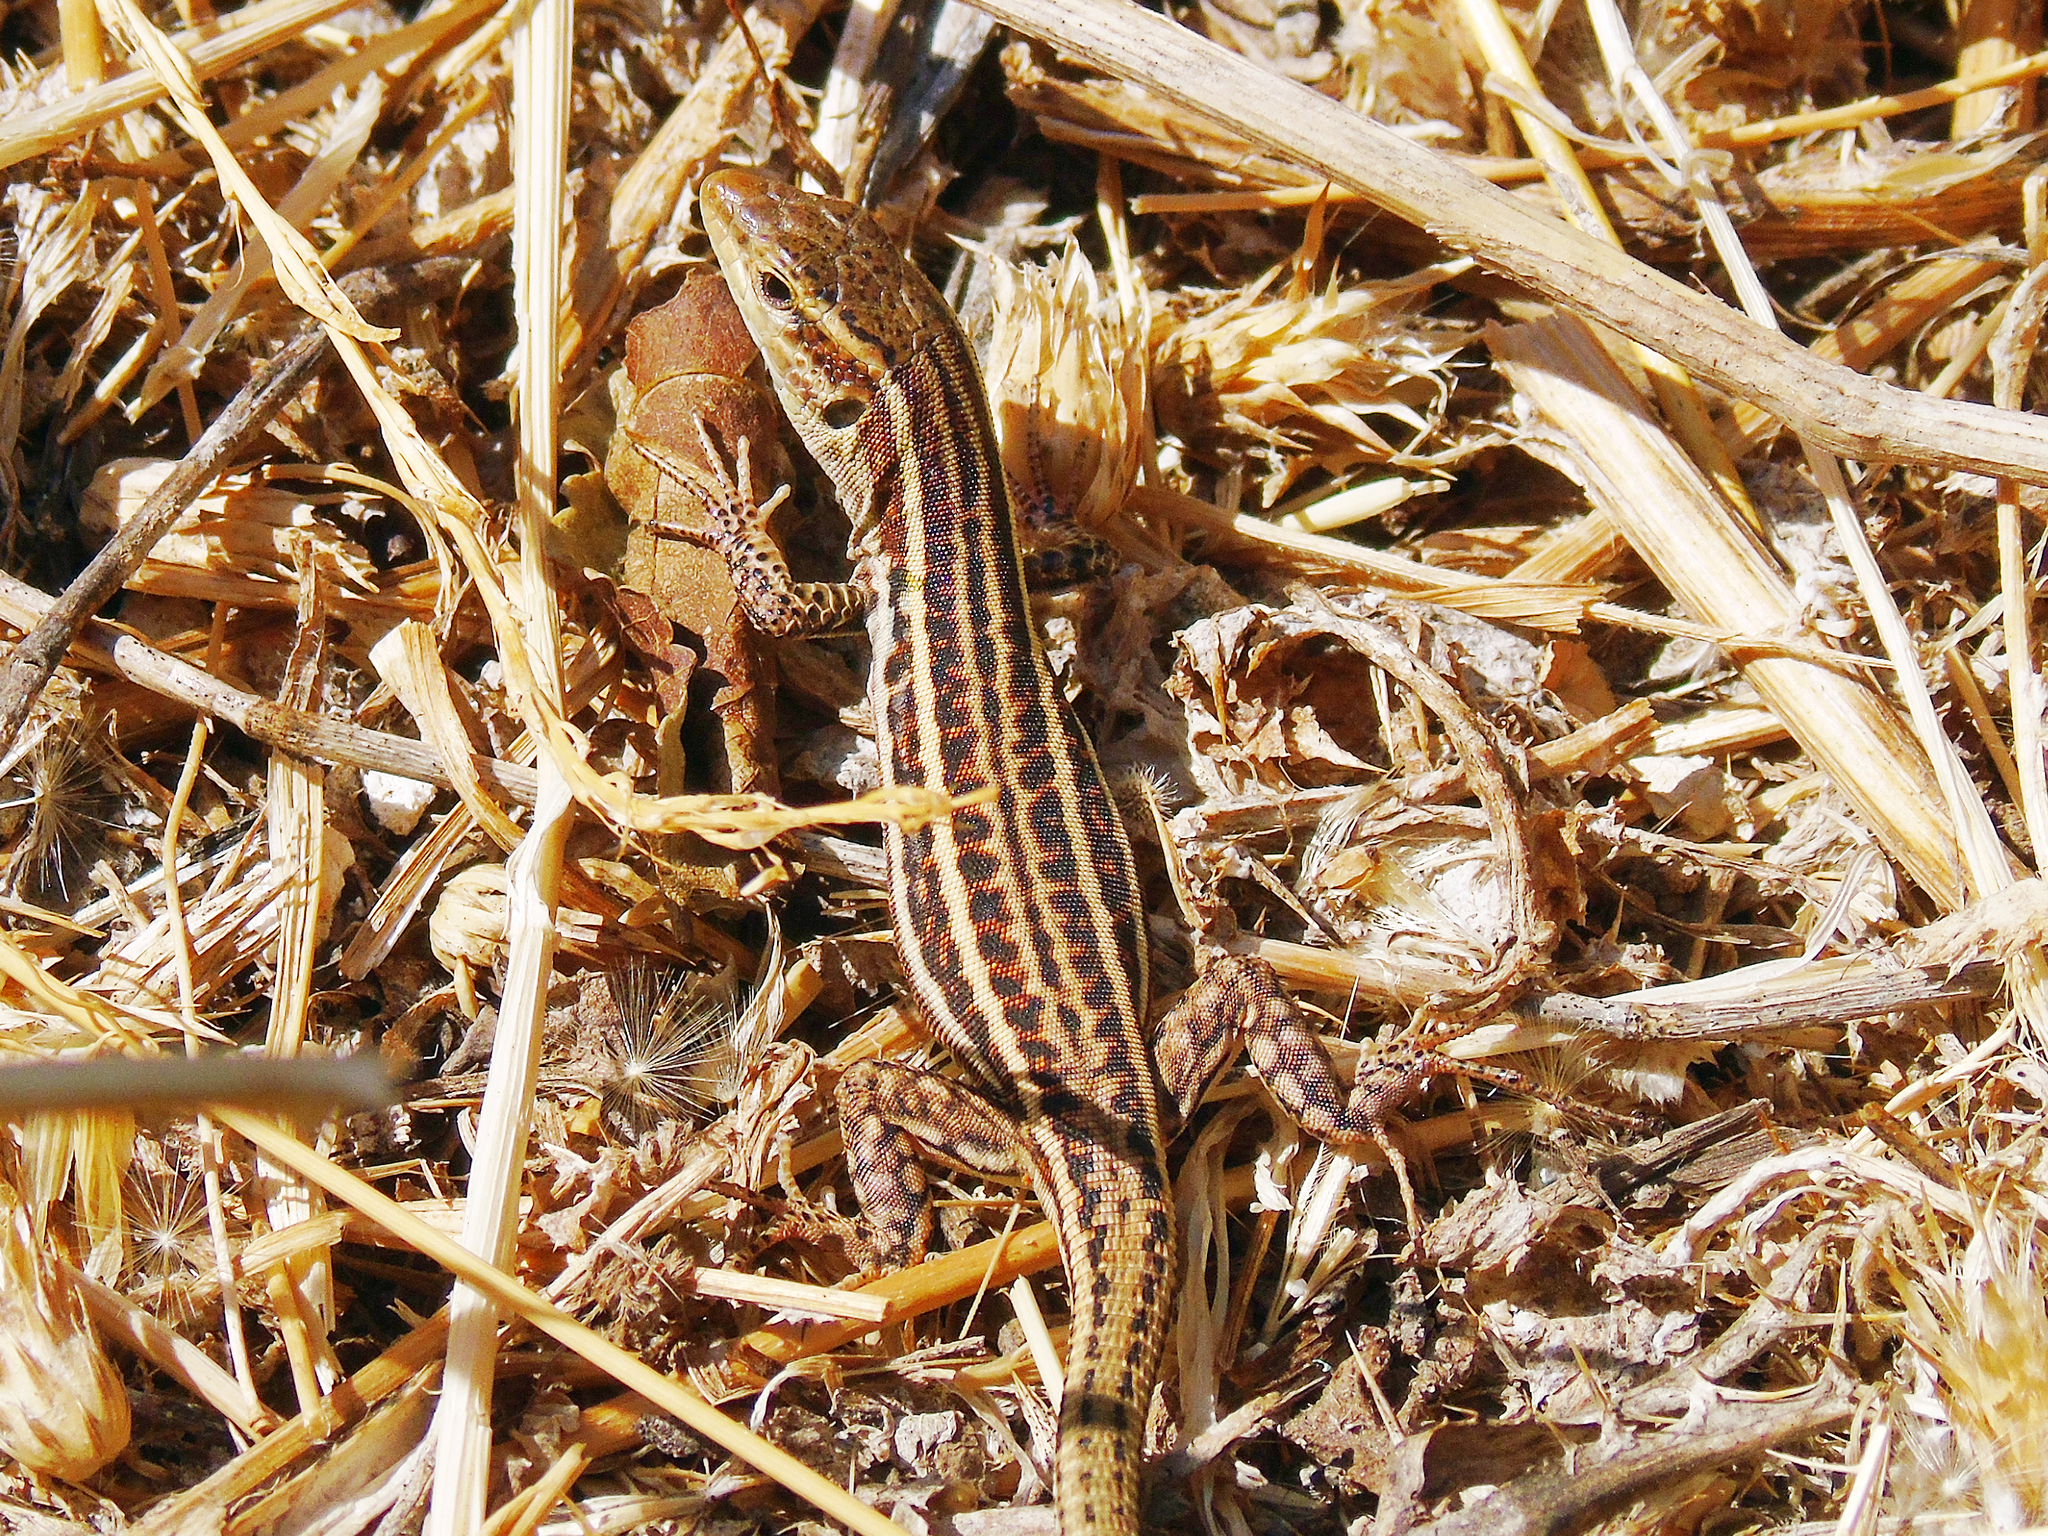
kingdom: Animalia
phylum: Chordata
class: Squamata
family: Lacertidae
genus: Podarcis
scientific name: Podarcis peloponnesiacus
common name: Peloponnese wall lizard
